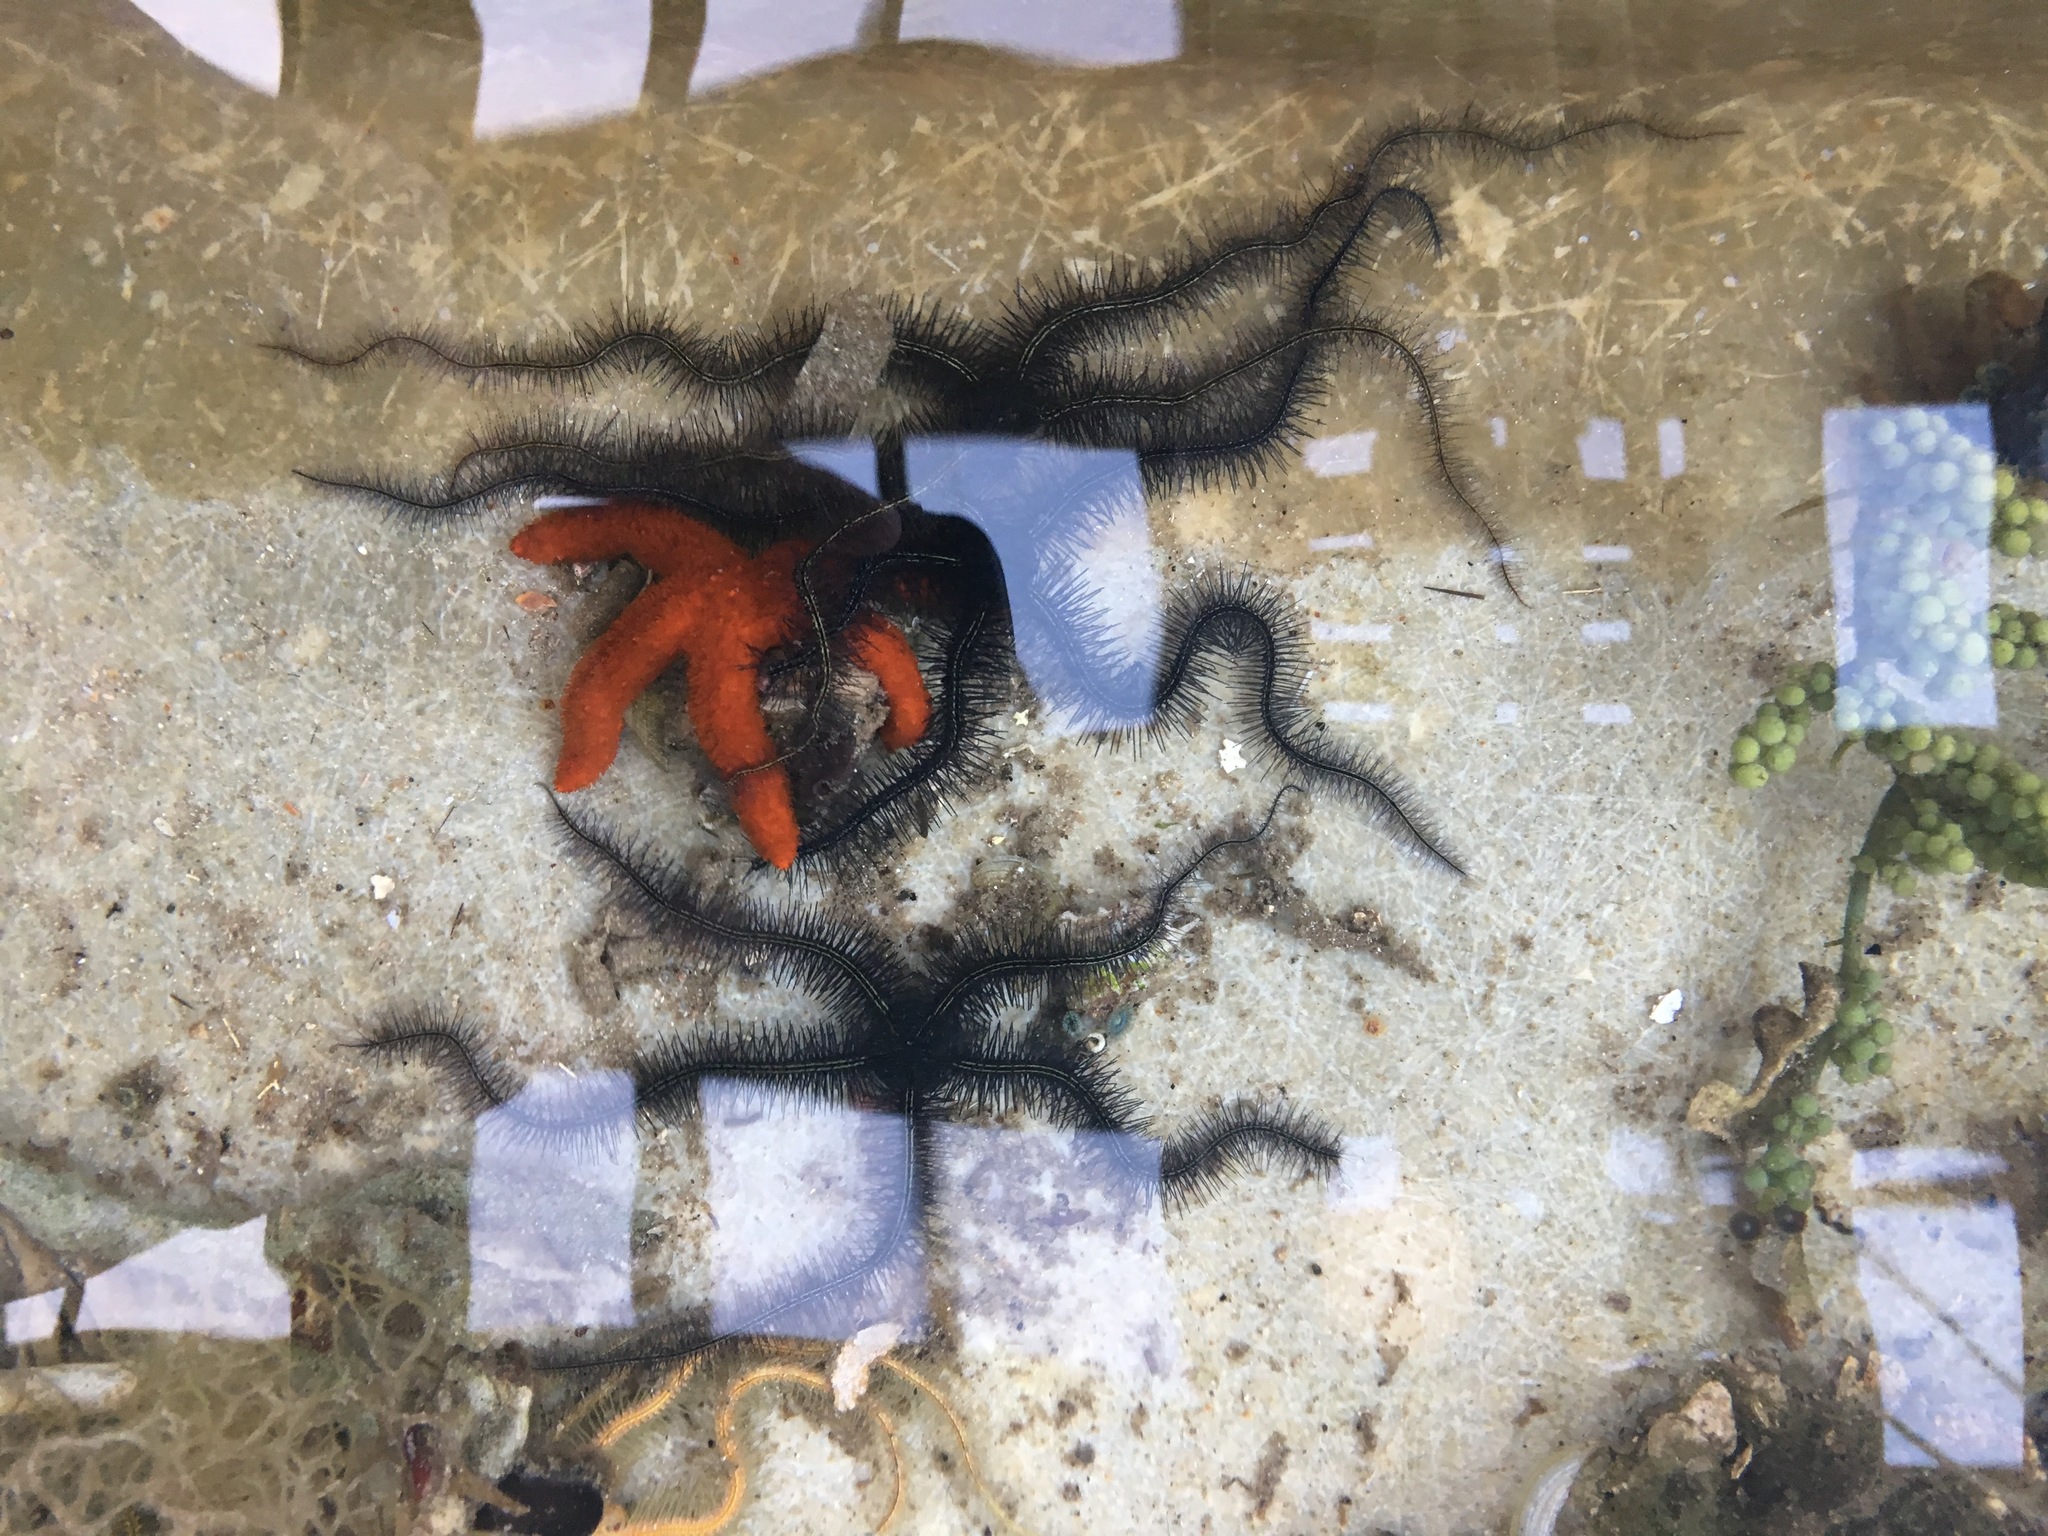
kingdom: Animalia
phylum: Echinodermata
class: Ophiuroidea
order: Amphilepidida
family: Ophiotrichidae
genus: Ophiothrix
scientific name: Ophiothrix suensonii
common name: Sponge brittle star
